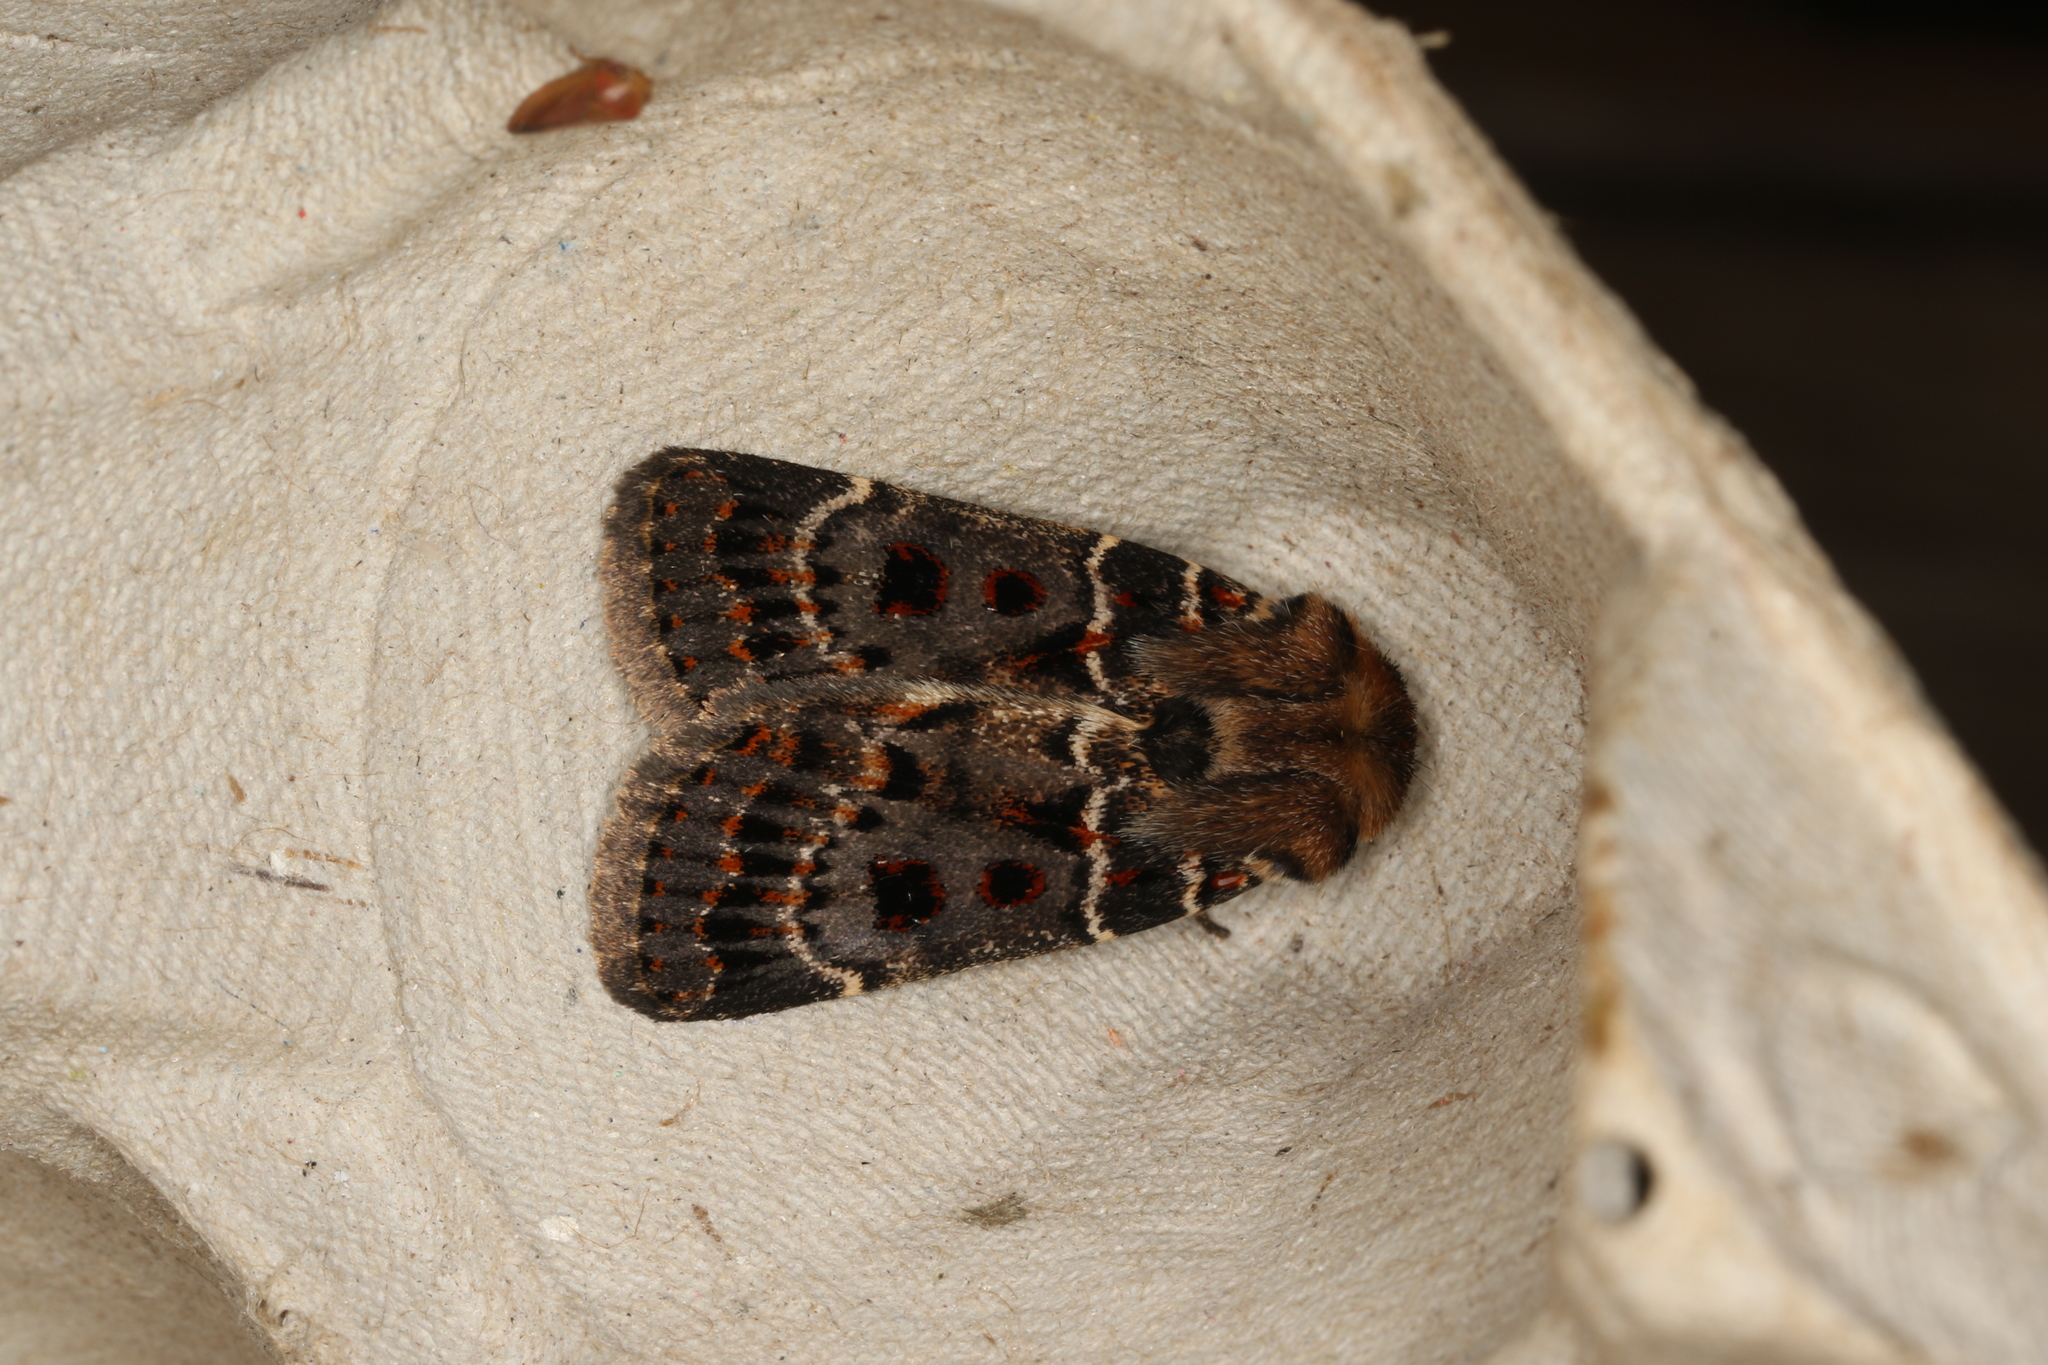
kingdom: Animalia
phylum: Arthropoda
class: Insecta
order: Lepidoptera
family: Noctuidae
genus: Proteuxoa
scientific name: Proteuxoa sanguinipuncta
